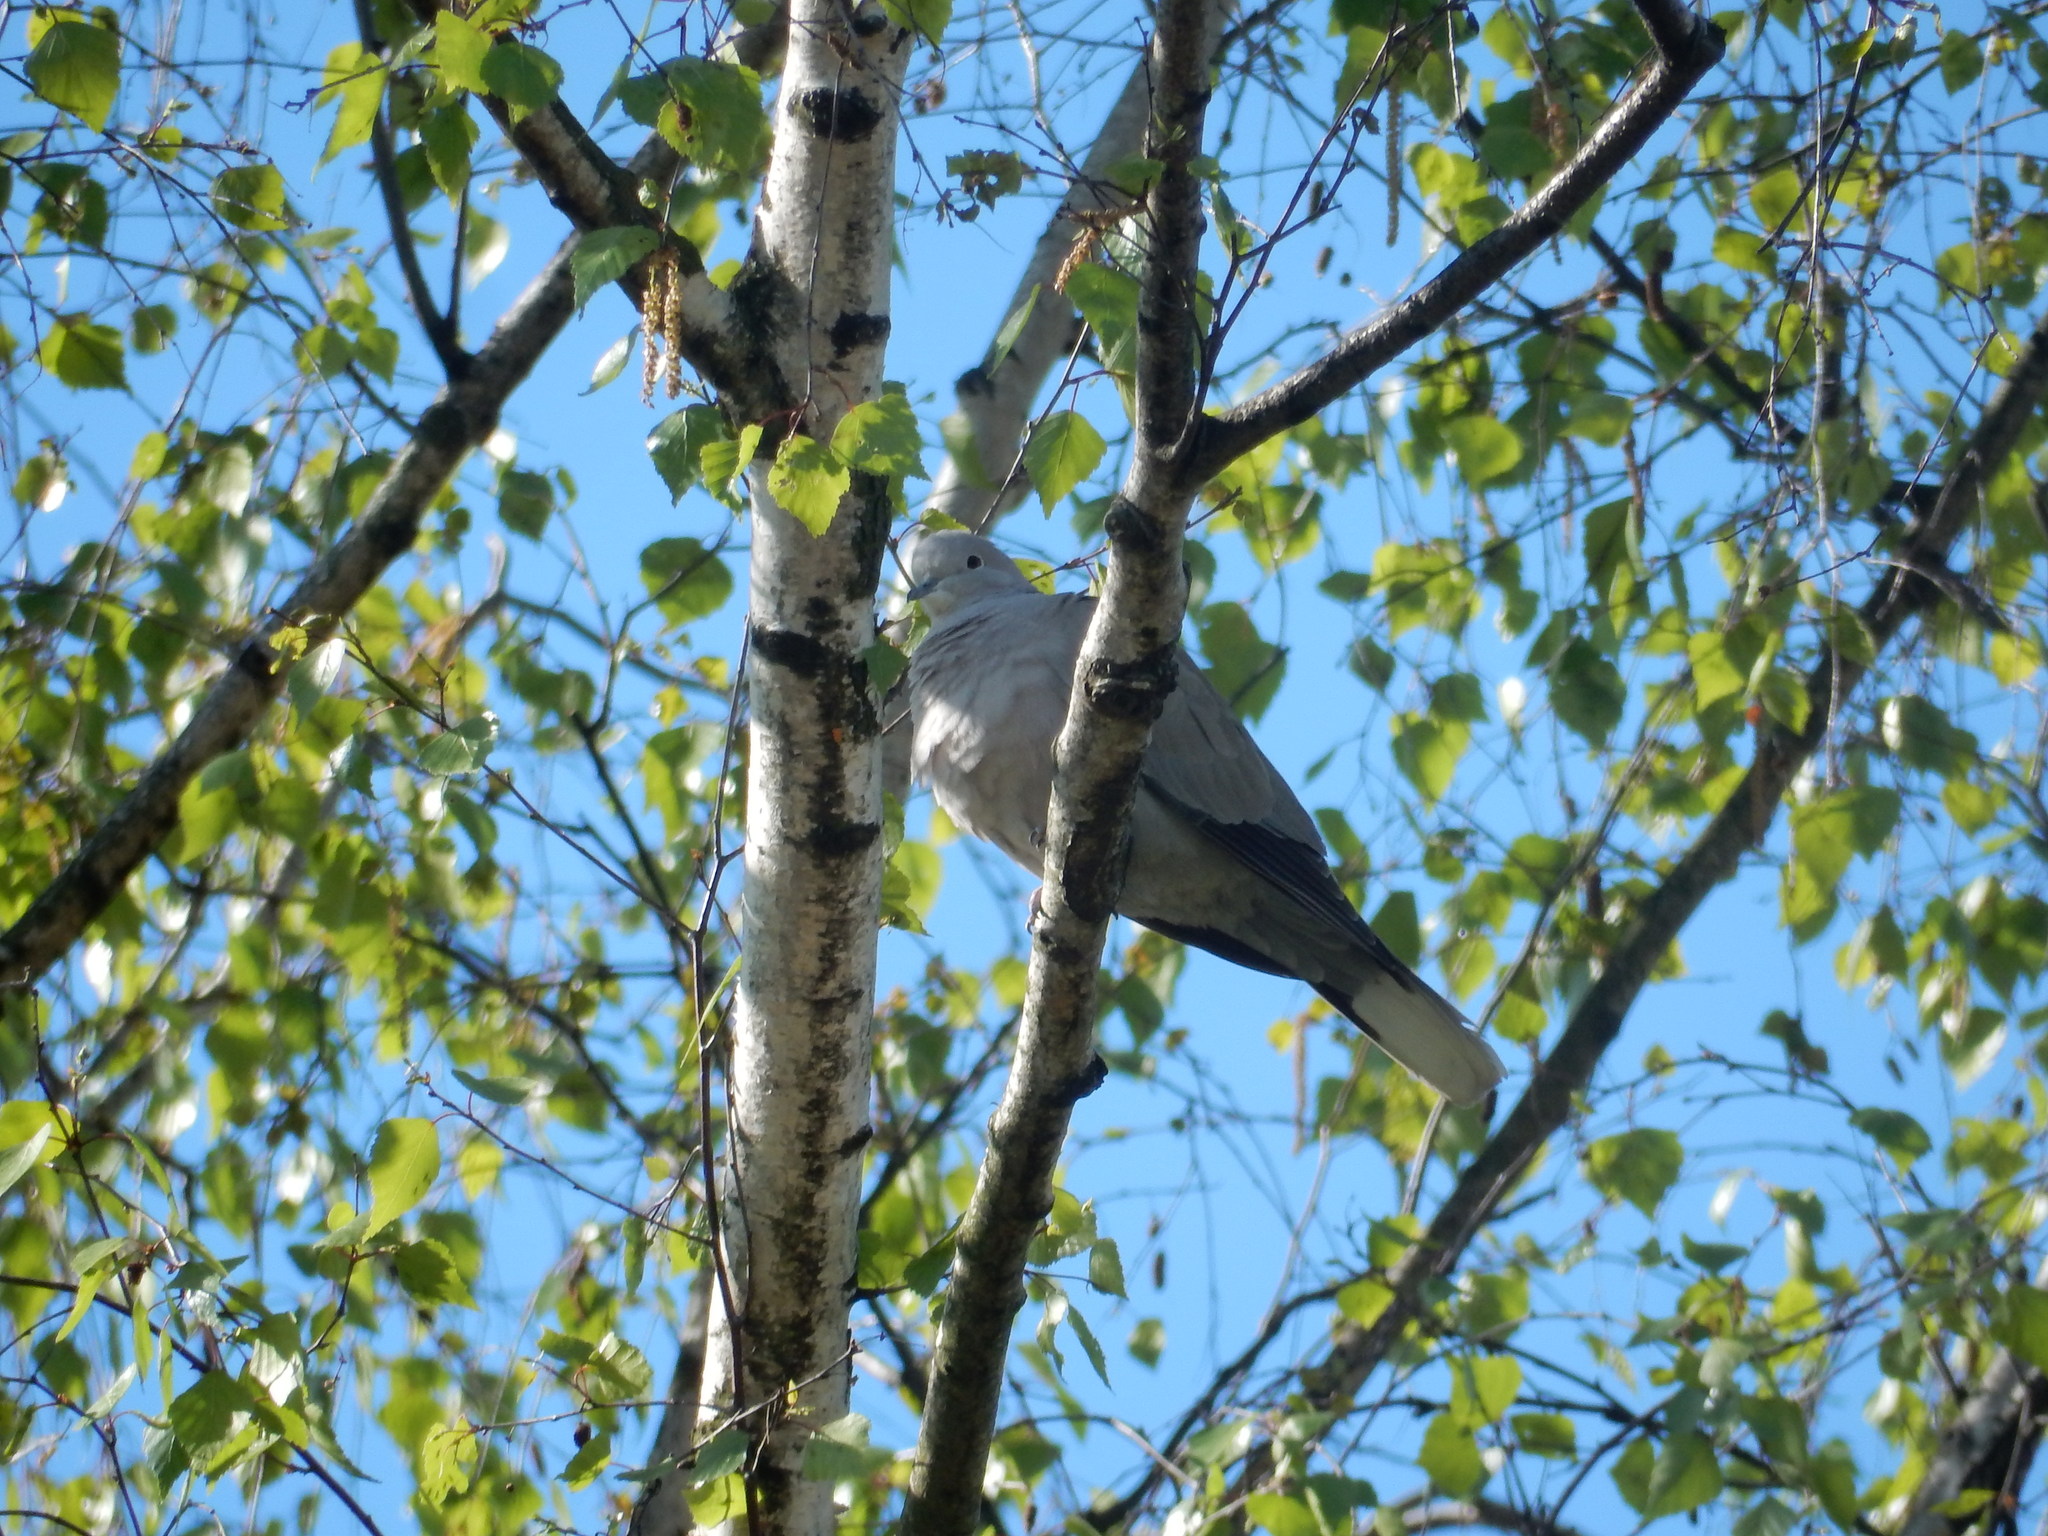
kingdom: Animalia
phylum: Chordata
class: Aves
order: Columbiformes
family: Columbidae
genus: Streptopelia
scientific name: Streptopelia decaocto
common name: Eurasian collared dove
